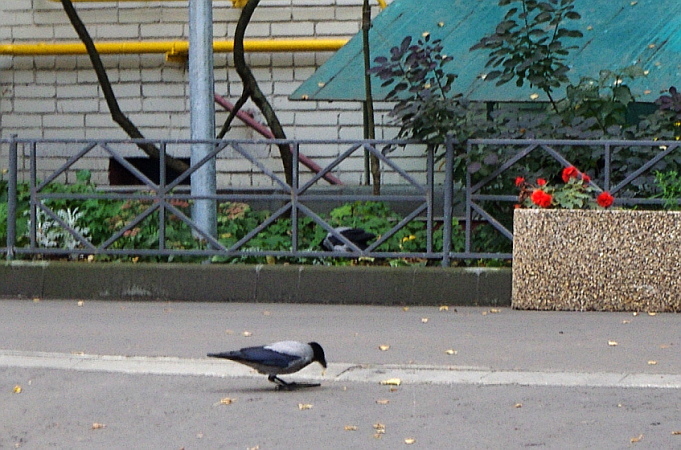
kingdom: Animalia
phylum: Chordata
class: Aves
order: Passeriformes
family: Corvidae
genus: Corvus
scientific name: Corvus cornix
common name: Hooded crow
